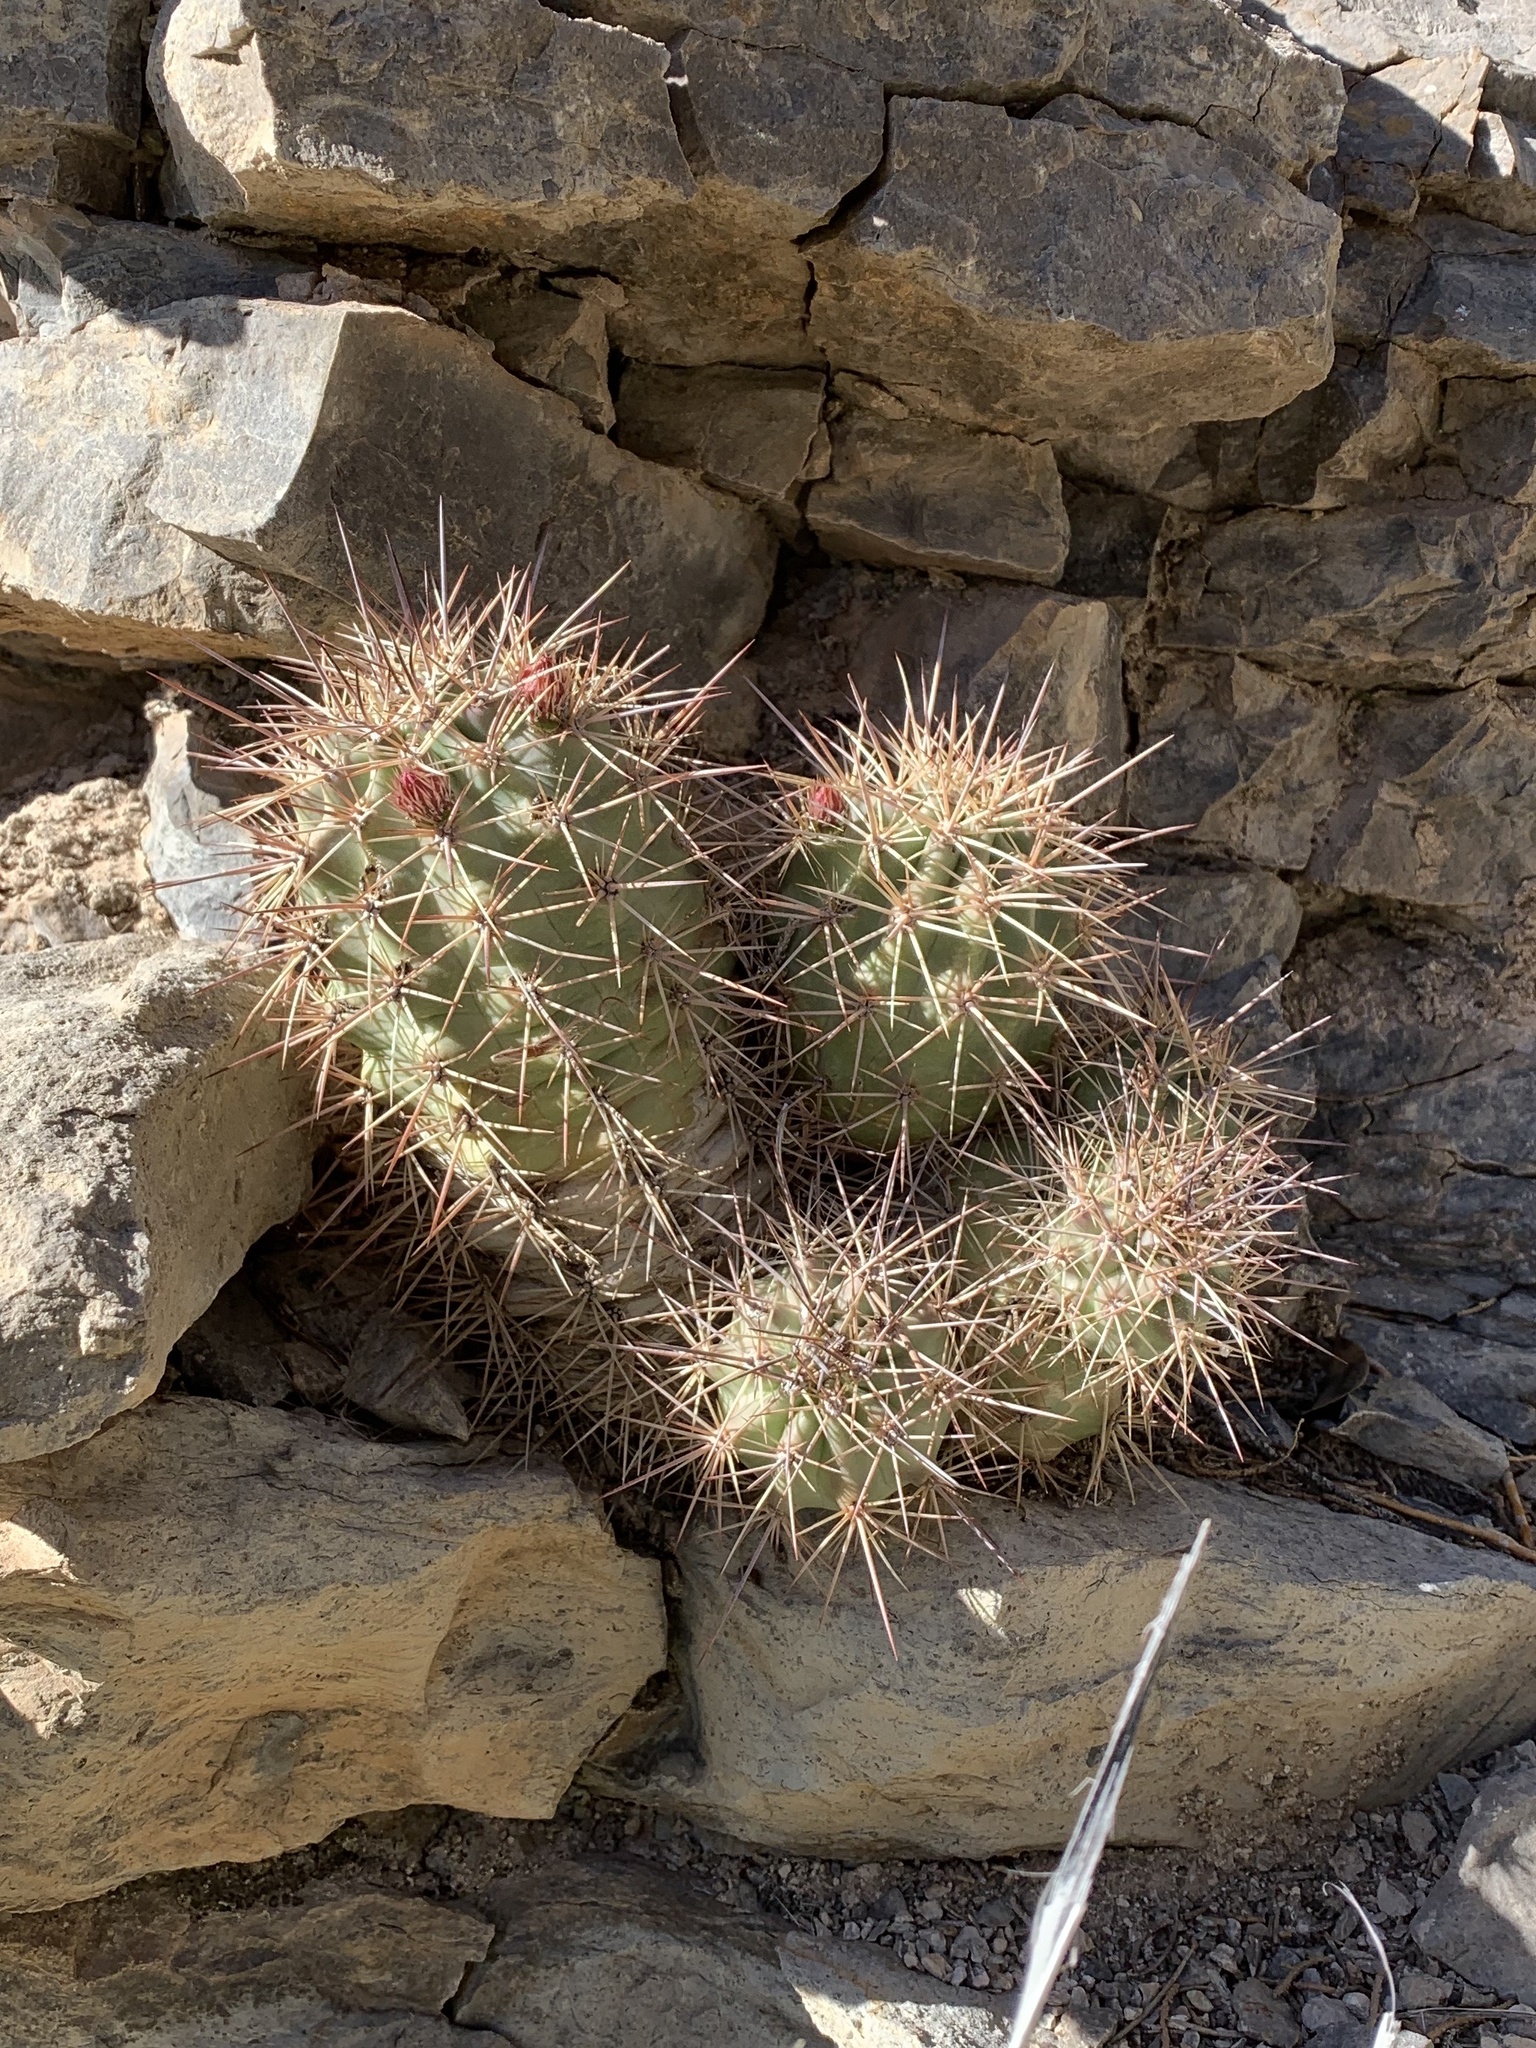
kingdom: Plantae
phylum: Tracheophyta
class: Magnoliopsida
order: Caryophyllales
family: Cactaceae
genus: Echinocereus
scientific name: Echinocereus coccineus
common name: Scarlet hedgehog cactus
